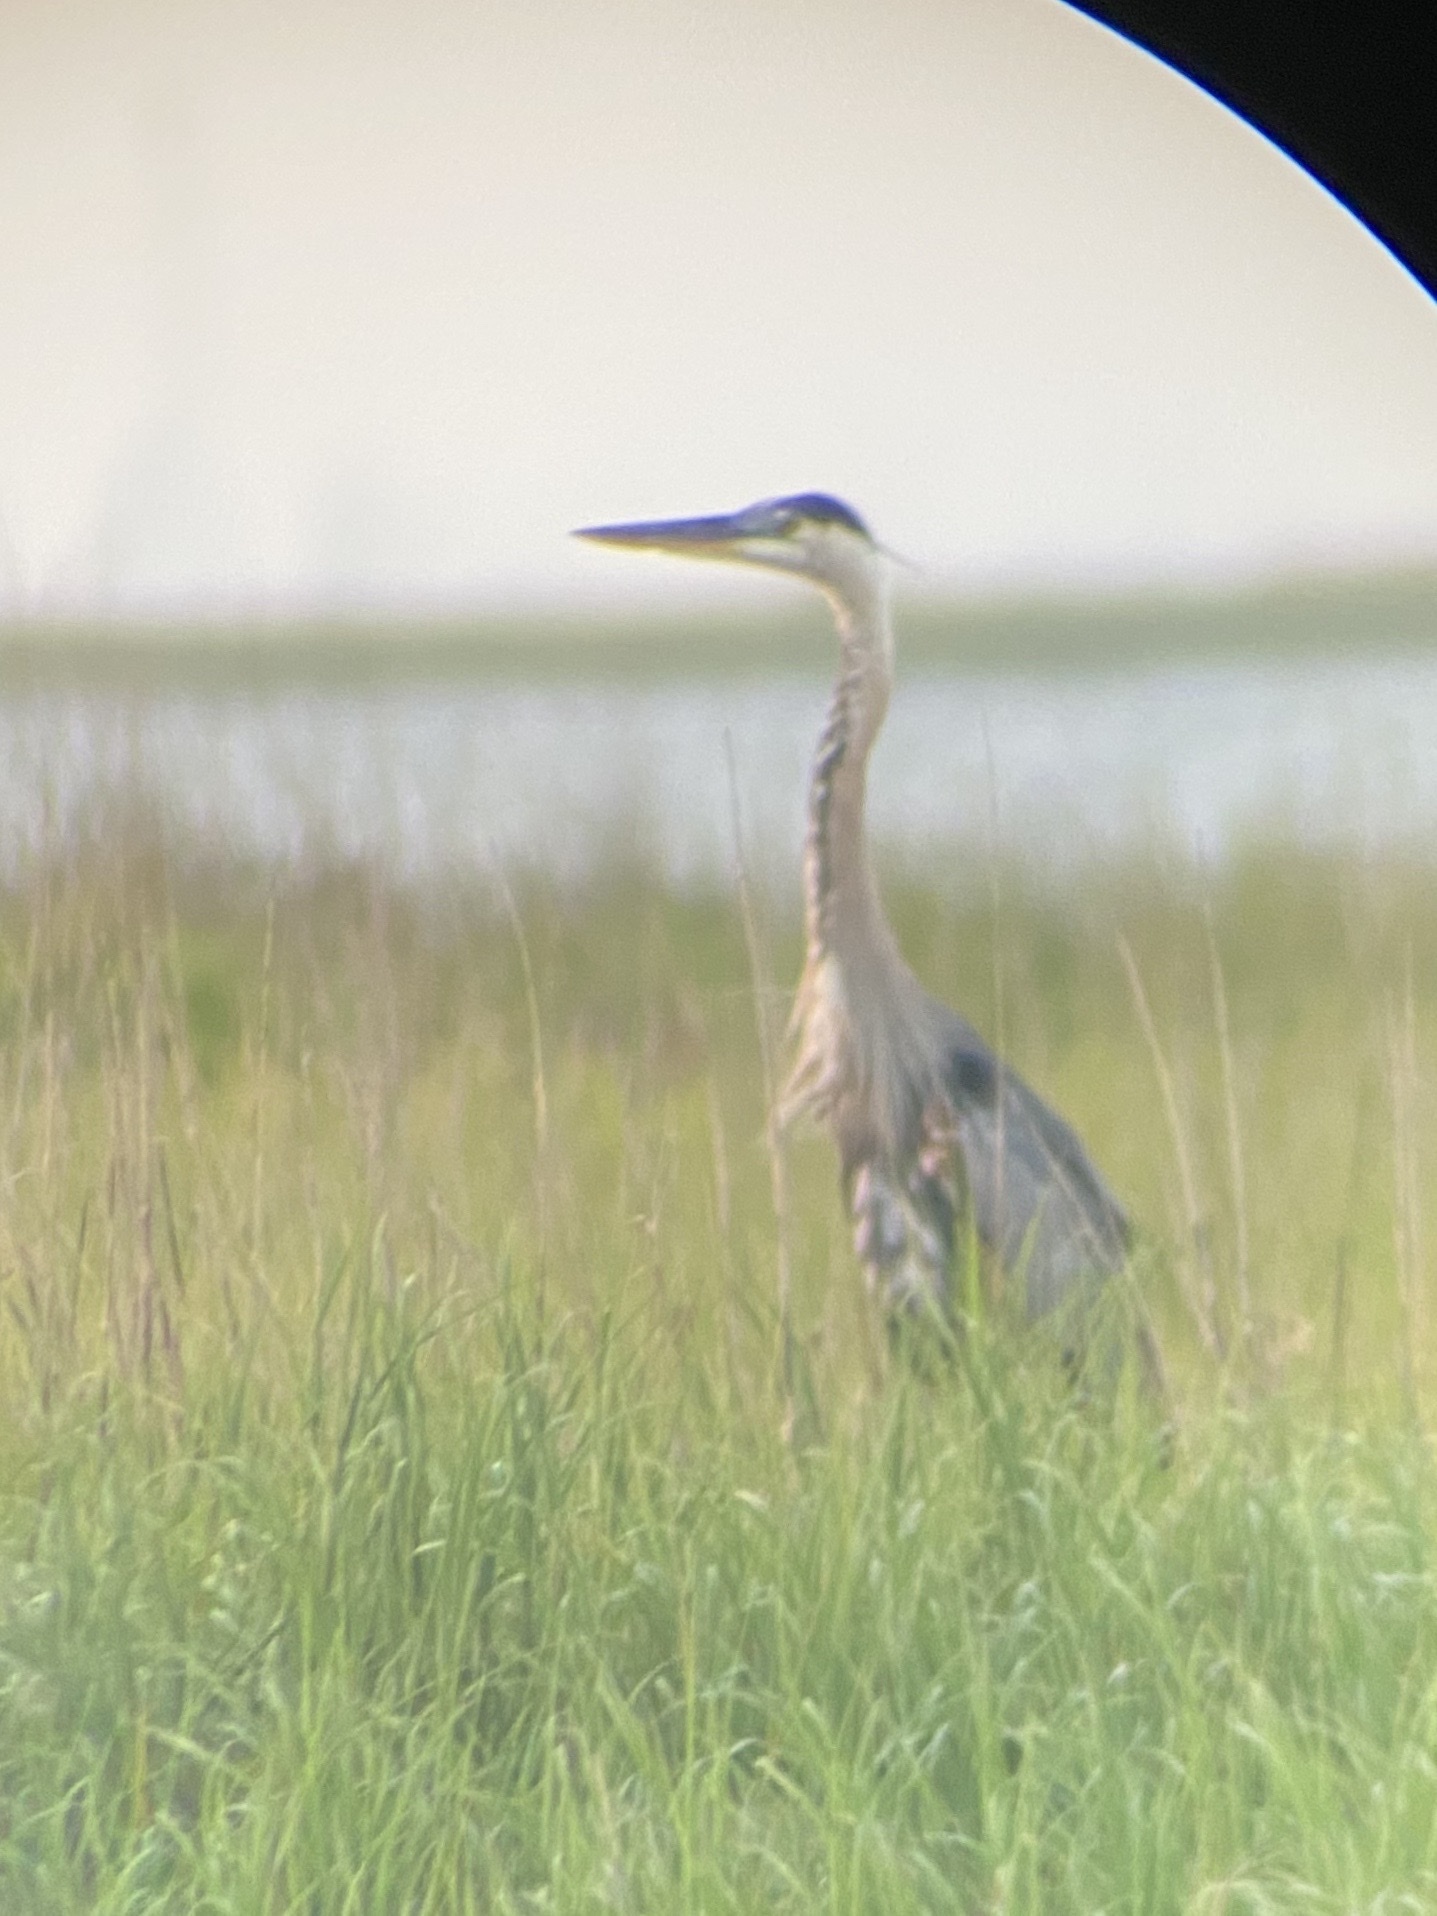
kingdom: Animalia
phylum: Chordata
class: Aves
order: Pelecaniformes
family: Ardeidae
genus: Ardea
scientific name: Ardea herodias
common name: Great blue heron
